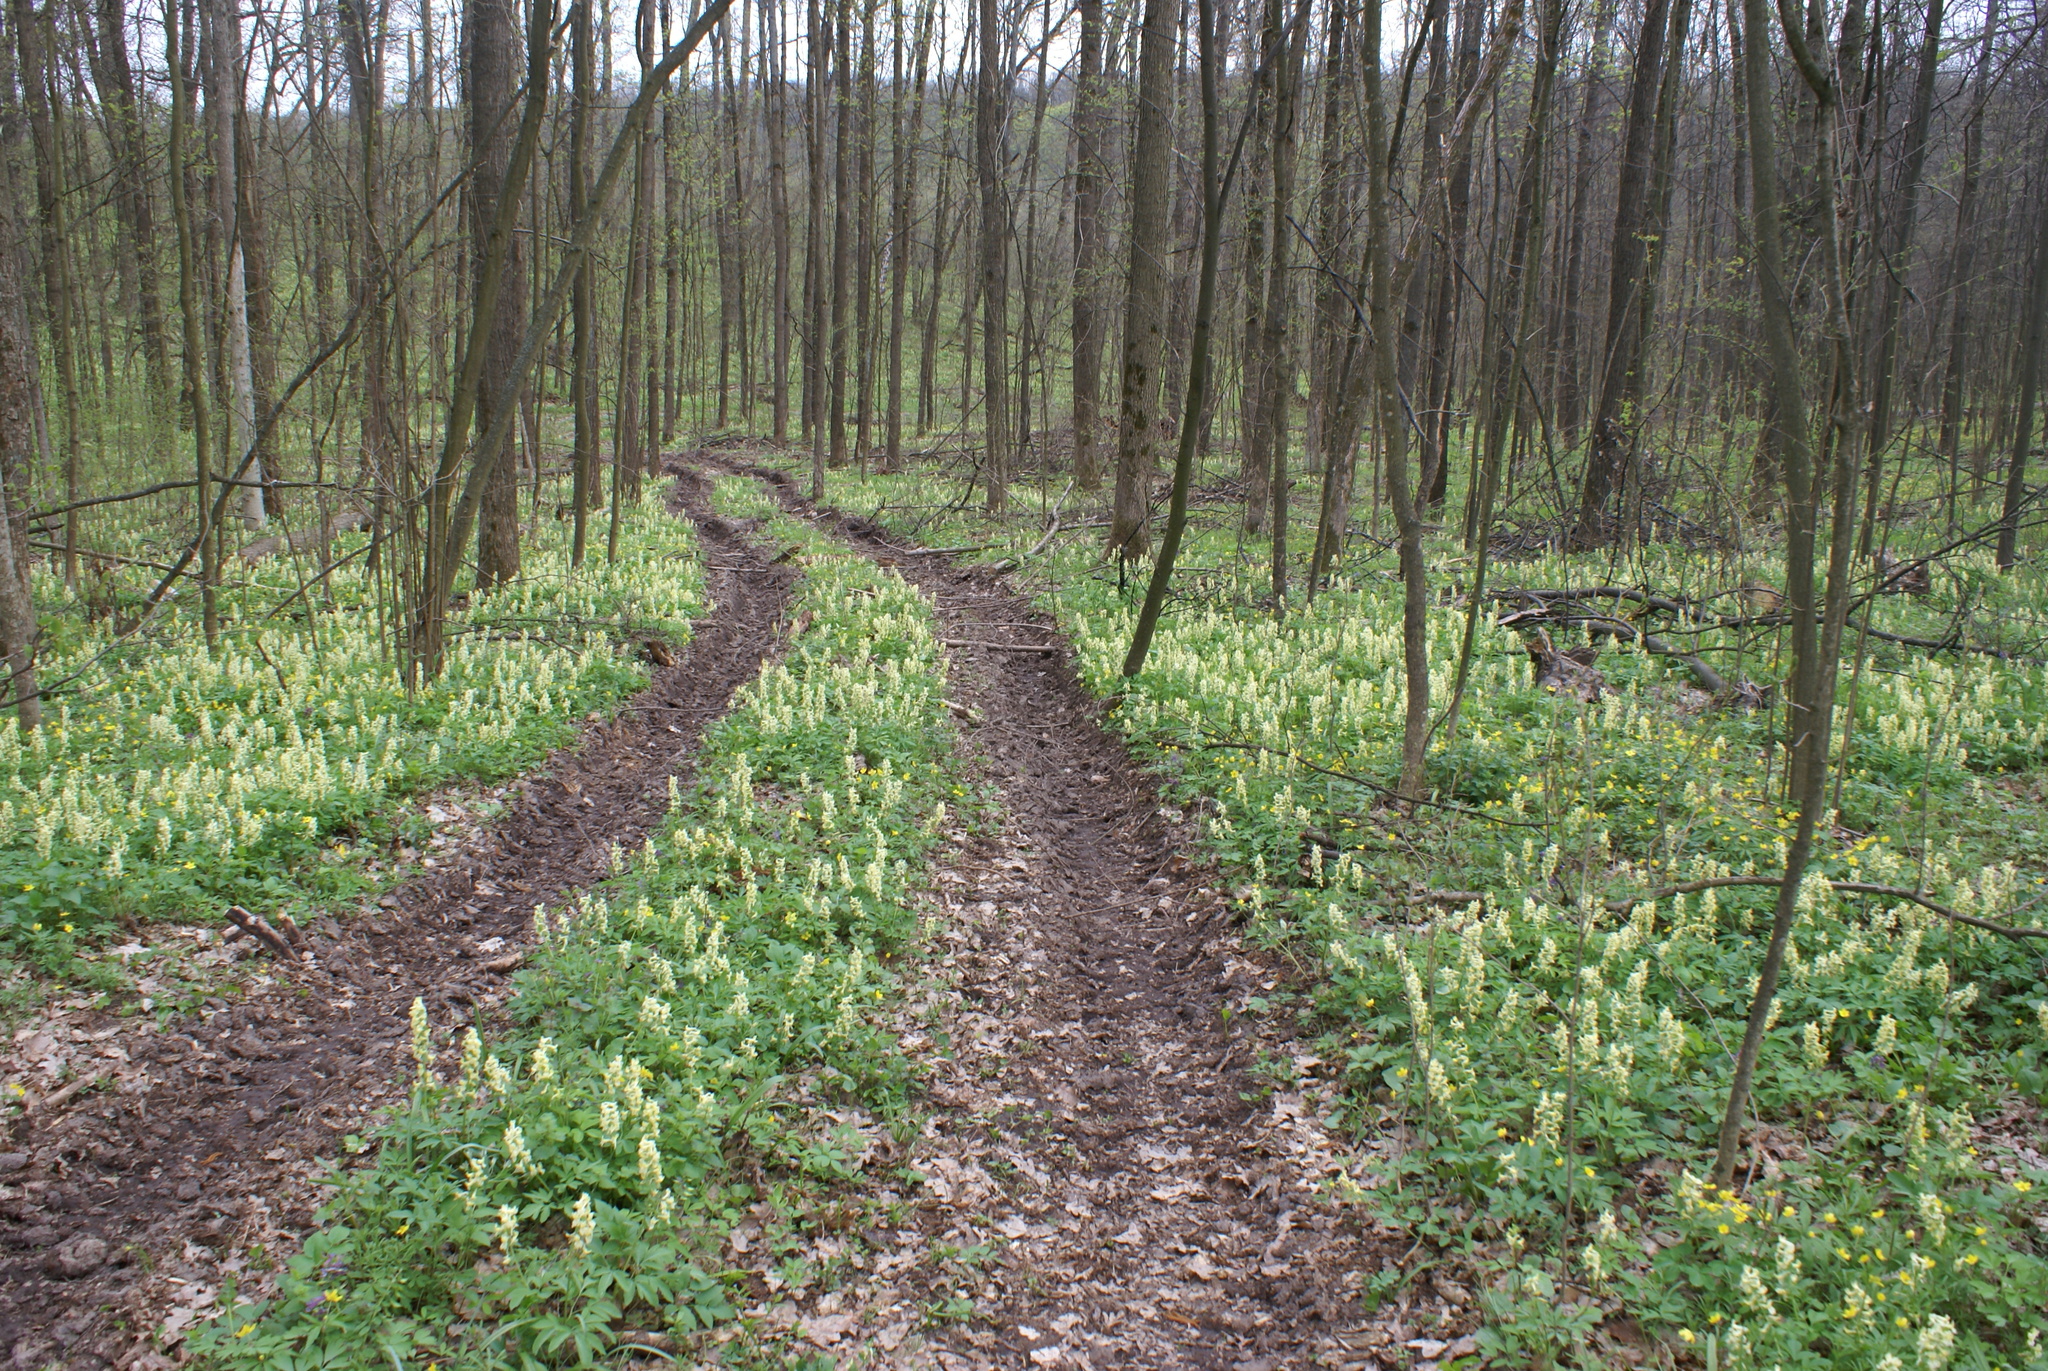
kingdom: Plantae
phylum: Tracheophyta
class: Magnoliopsida
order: Ranunculales
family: Papaveraceae
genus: Corydalis
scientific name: Corydalis cava
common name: Hollowroot
